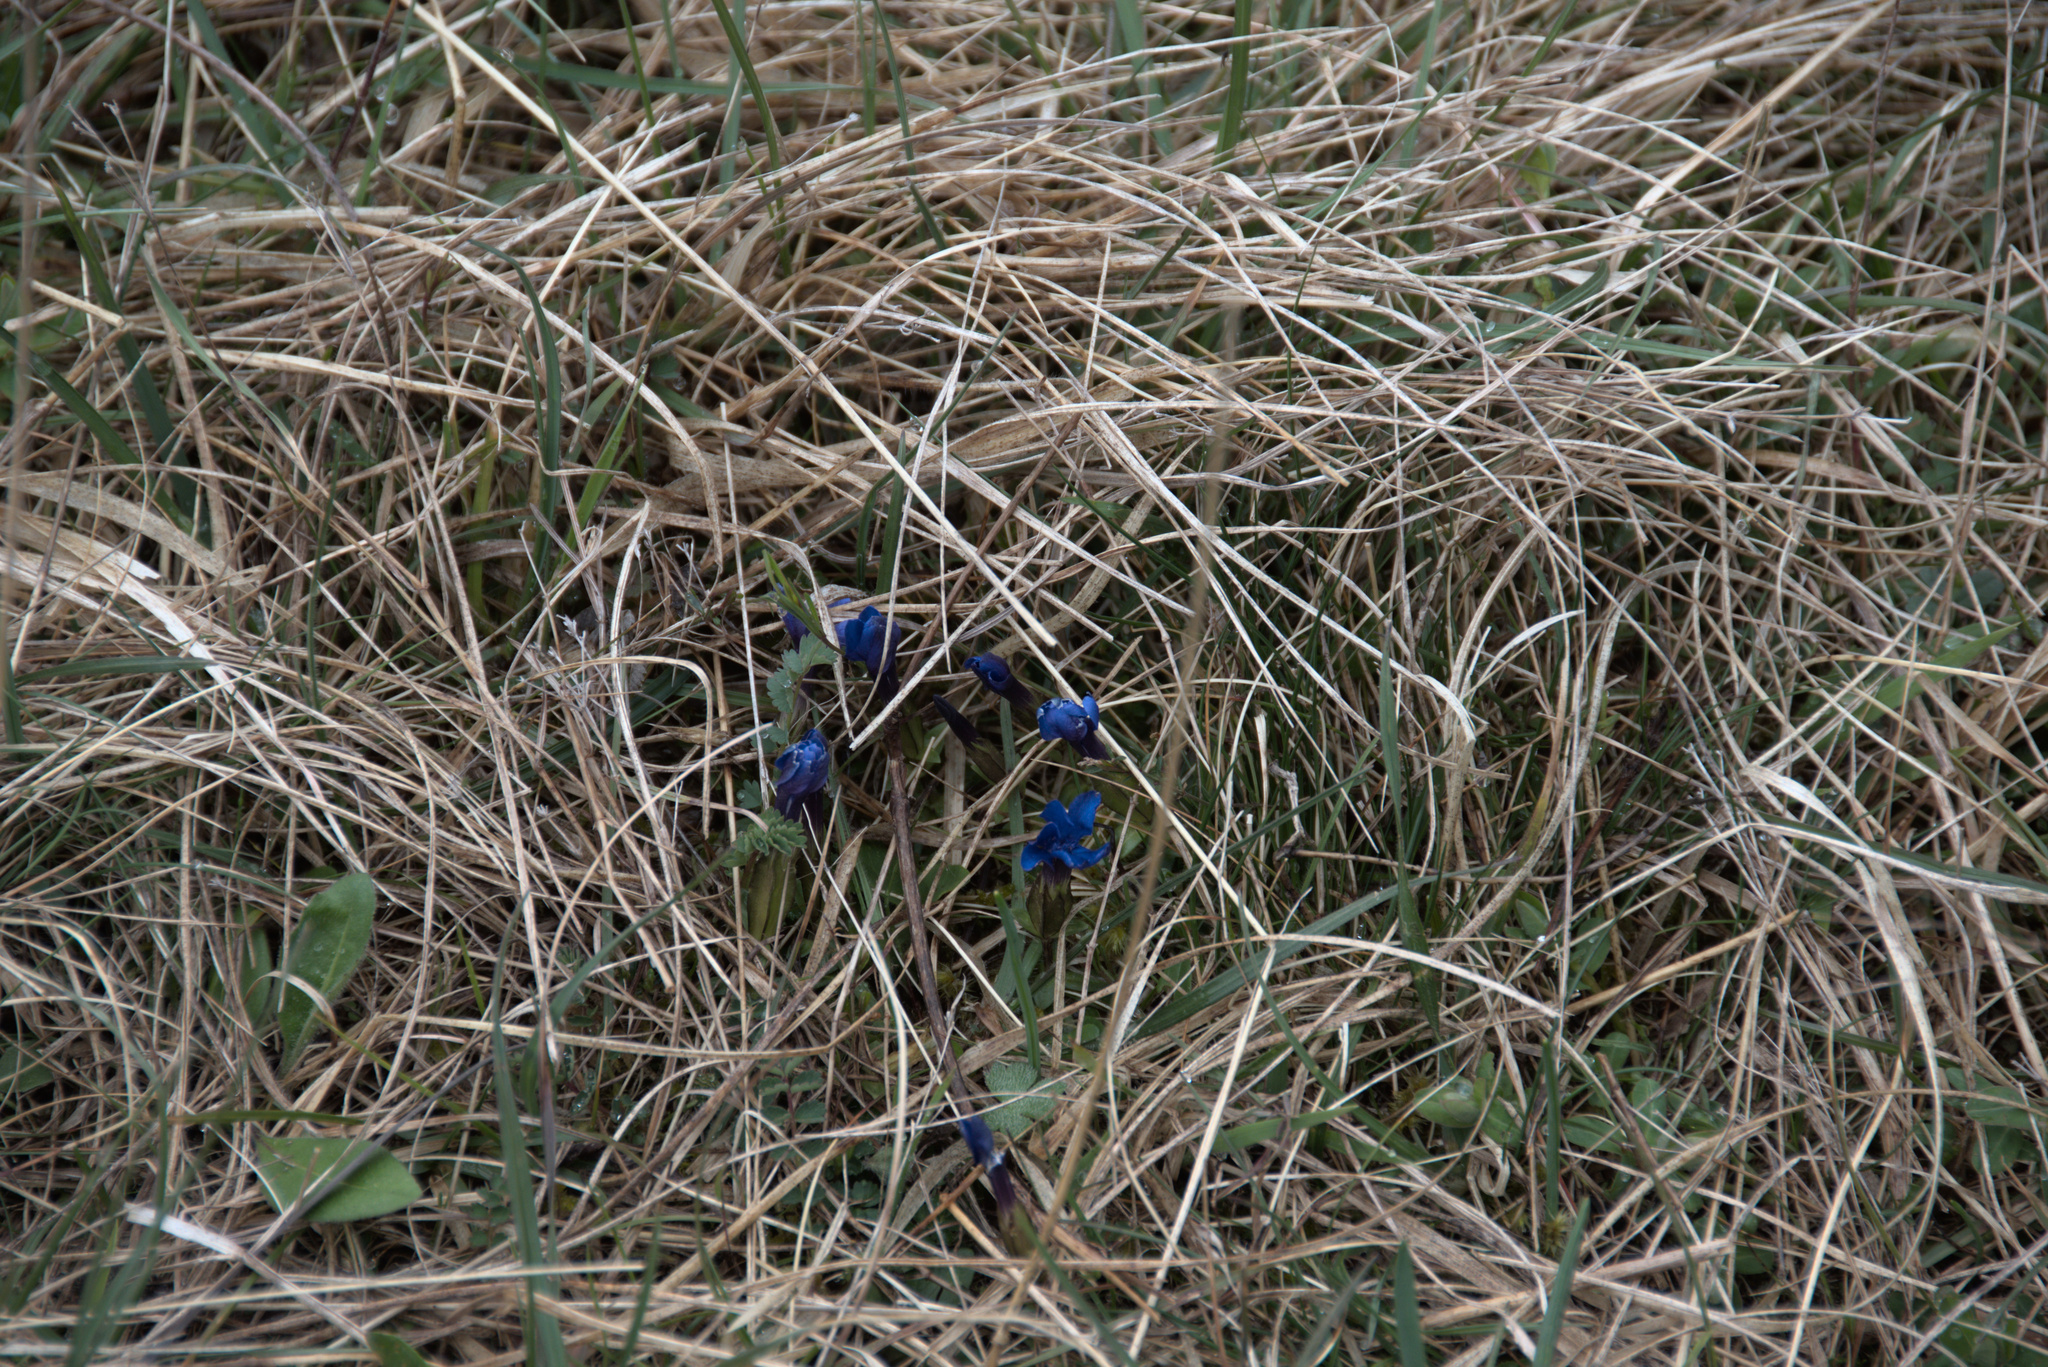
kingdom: Plantae
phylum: Tracheophyta
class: Magnoliopsida
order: Gentianales
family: Gentianaceae
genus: Gentiana
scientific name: Gentiana verna
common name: Spring gentian
